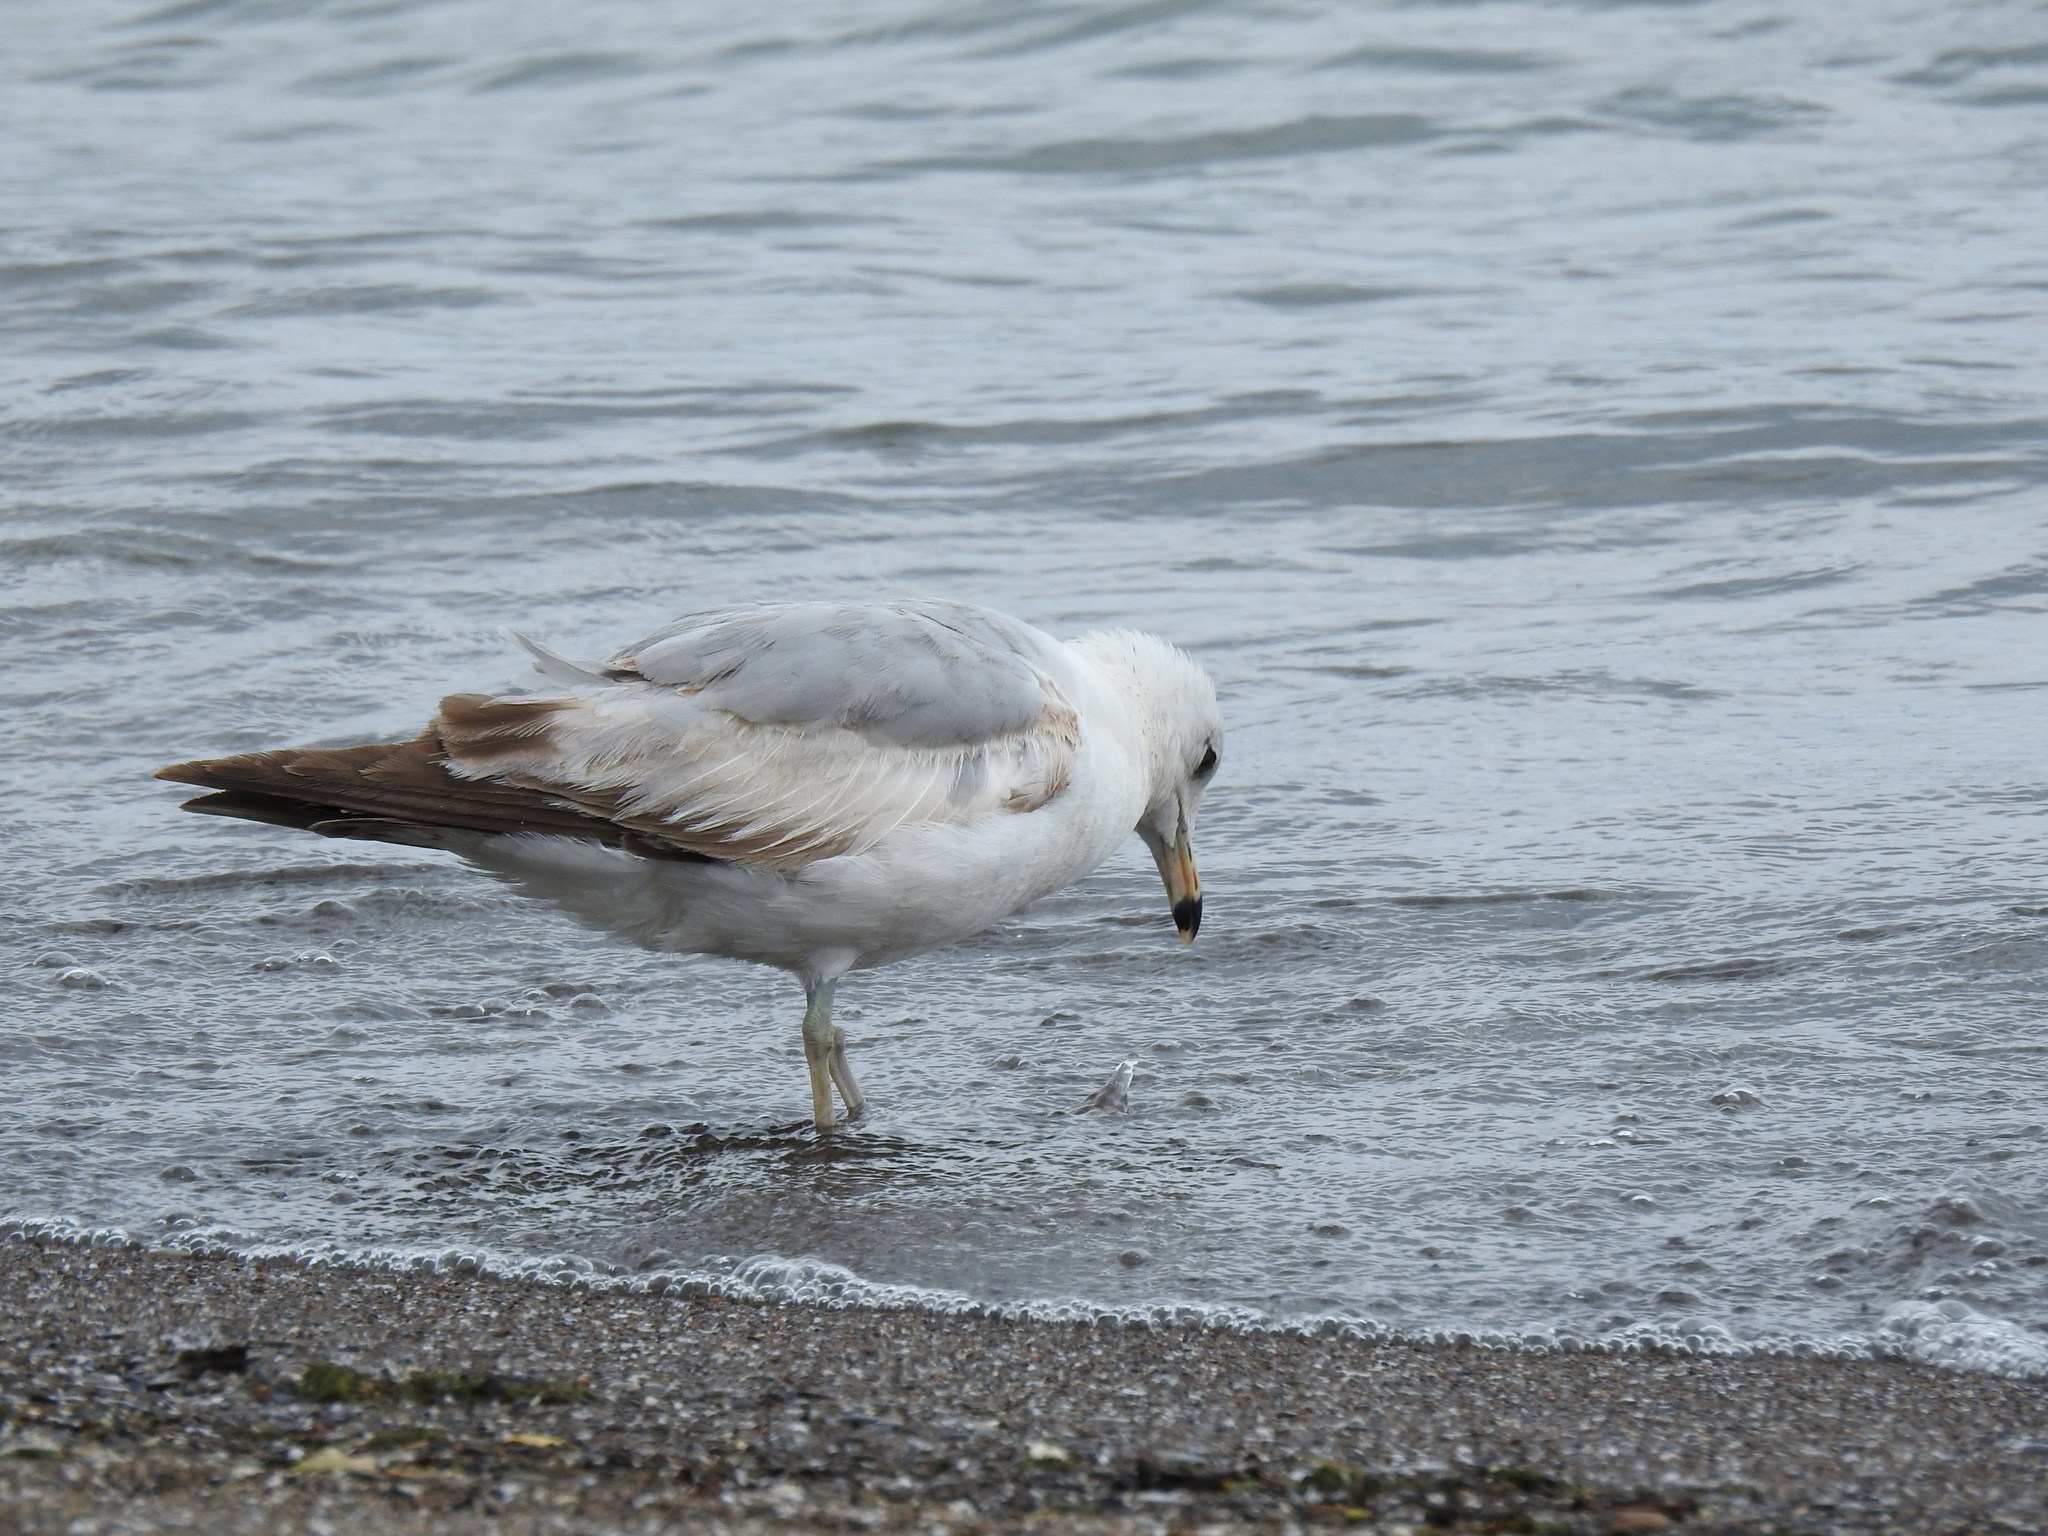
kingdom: Animalia
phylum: Chordata
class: Aves
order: Charadriiformes
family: Laridae
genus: Larus
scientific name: Larus delawarensis
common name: Ring-billed gull
